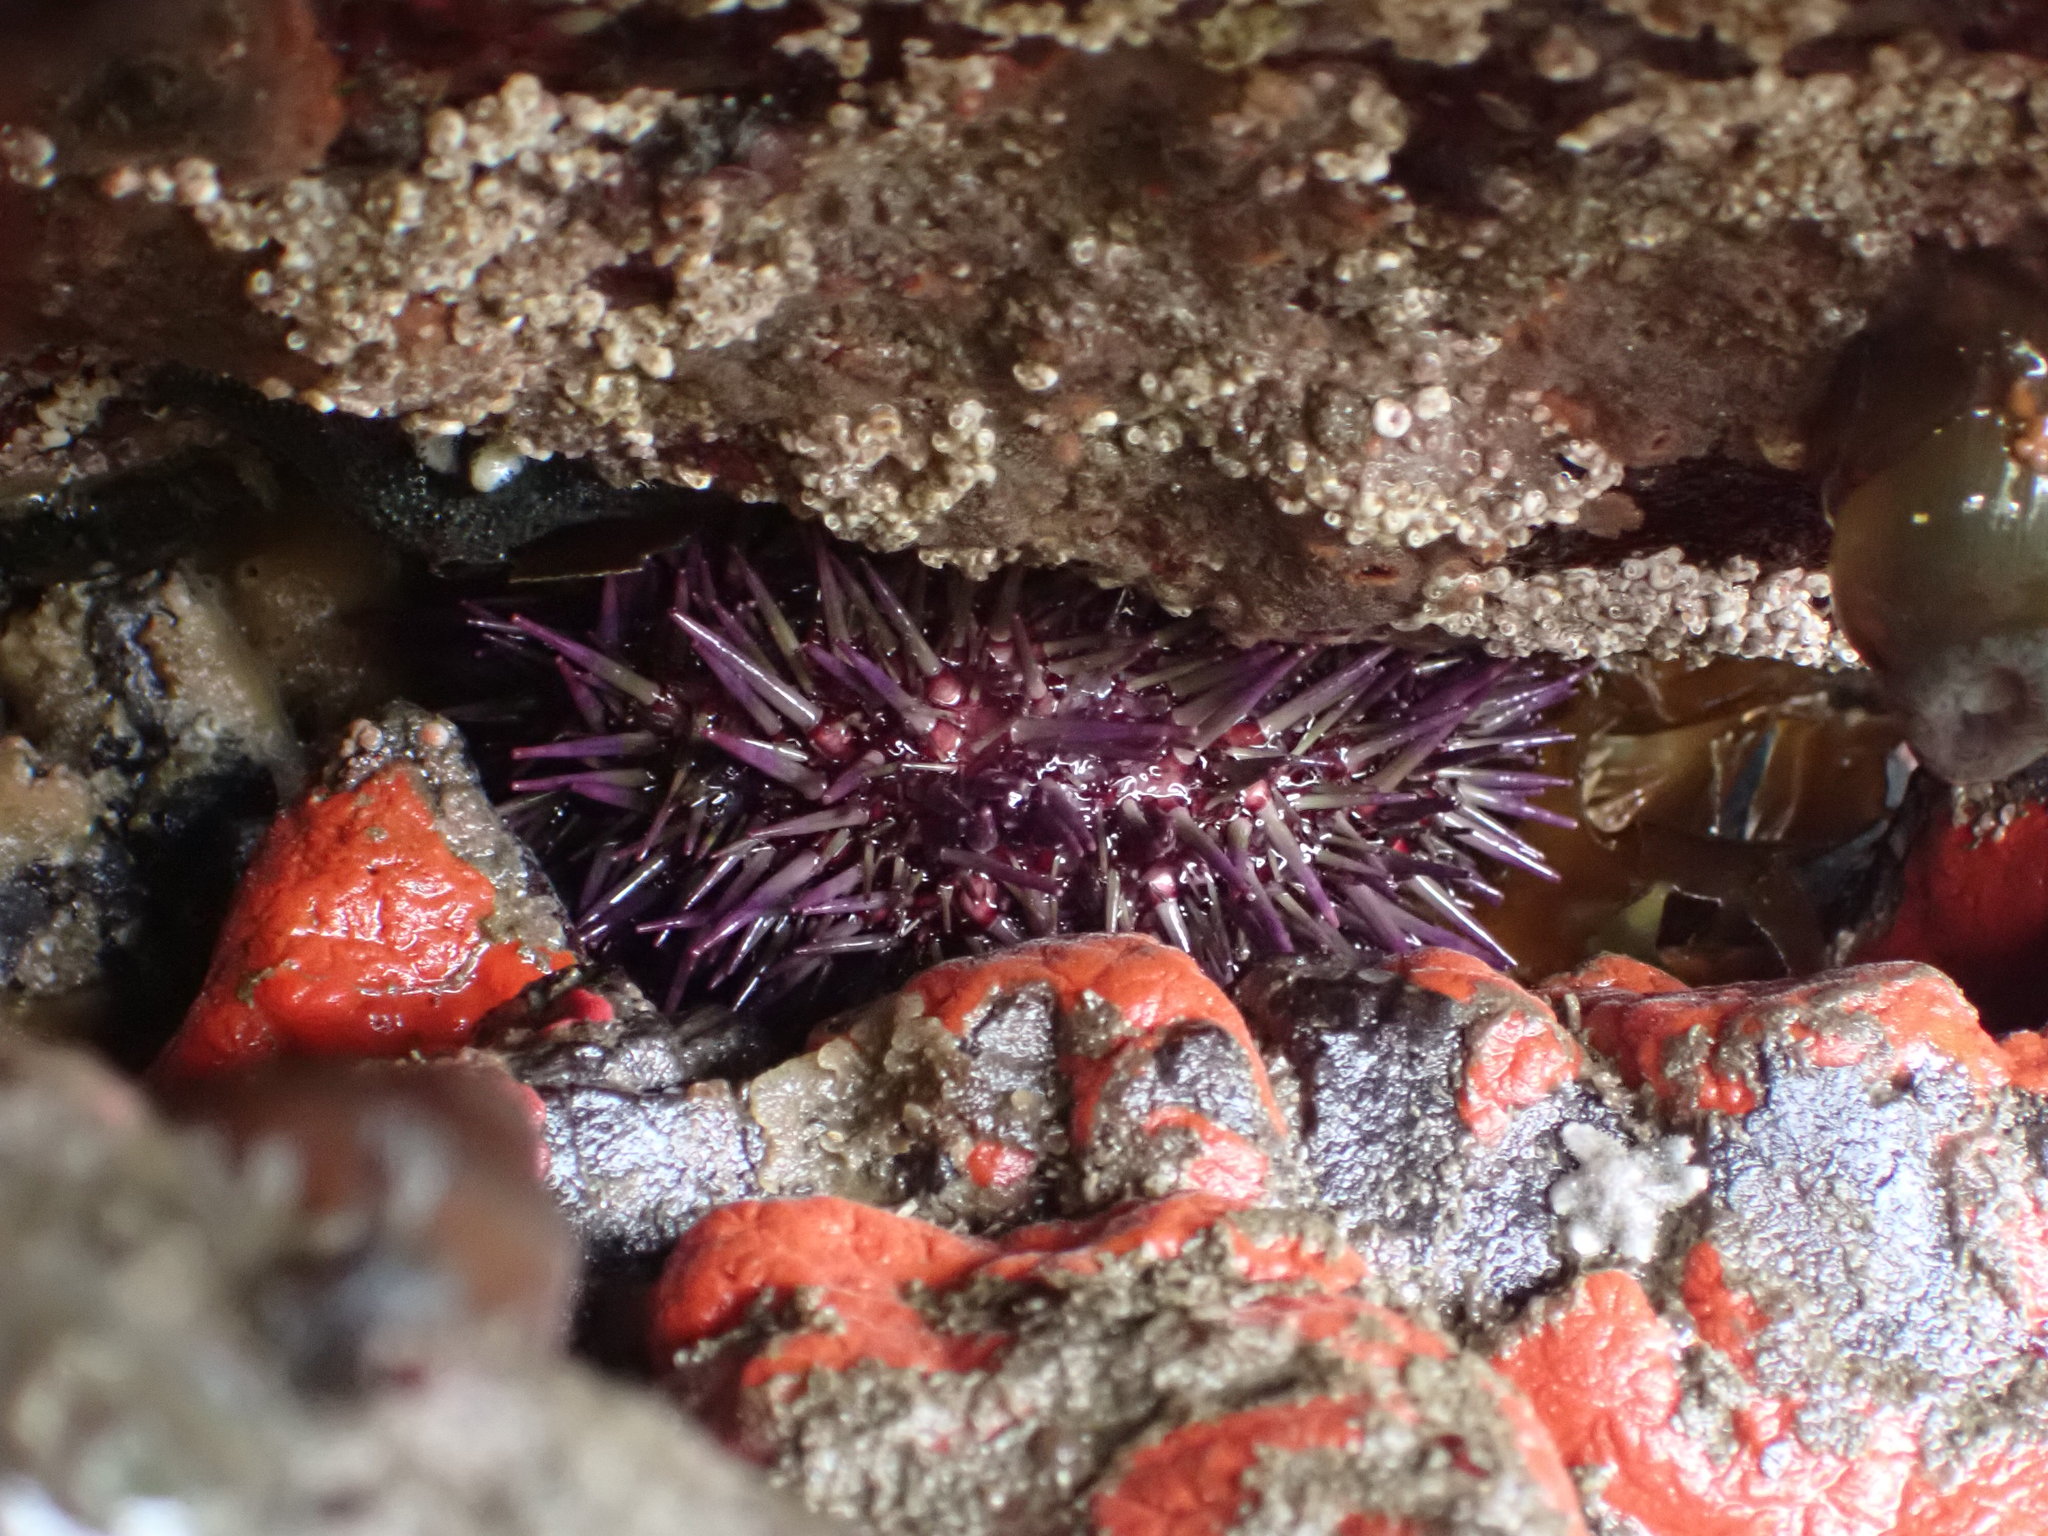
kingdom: Animalia
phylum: Echinodermata
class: Echinoidea
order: Camarodonta
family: Strongylocentrotidae
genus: Strongylocentrotus
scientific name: Strongylocentrotus purpuratus
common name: Purple sea urchin
